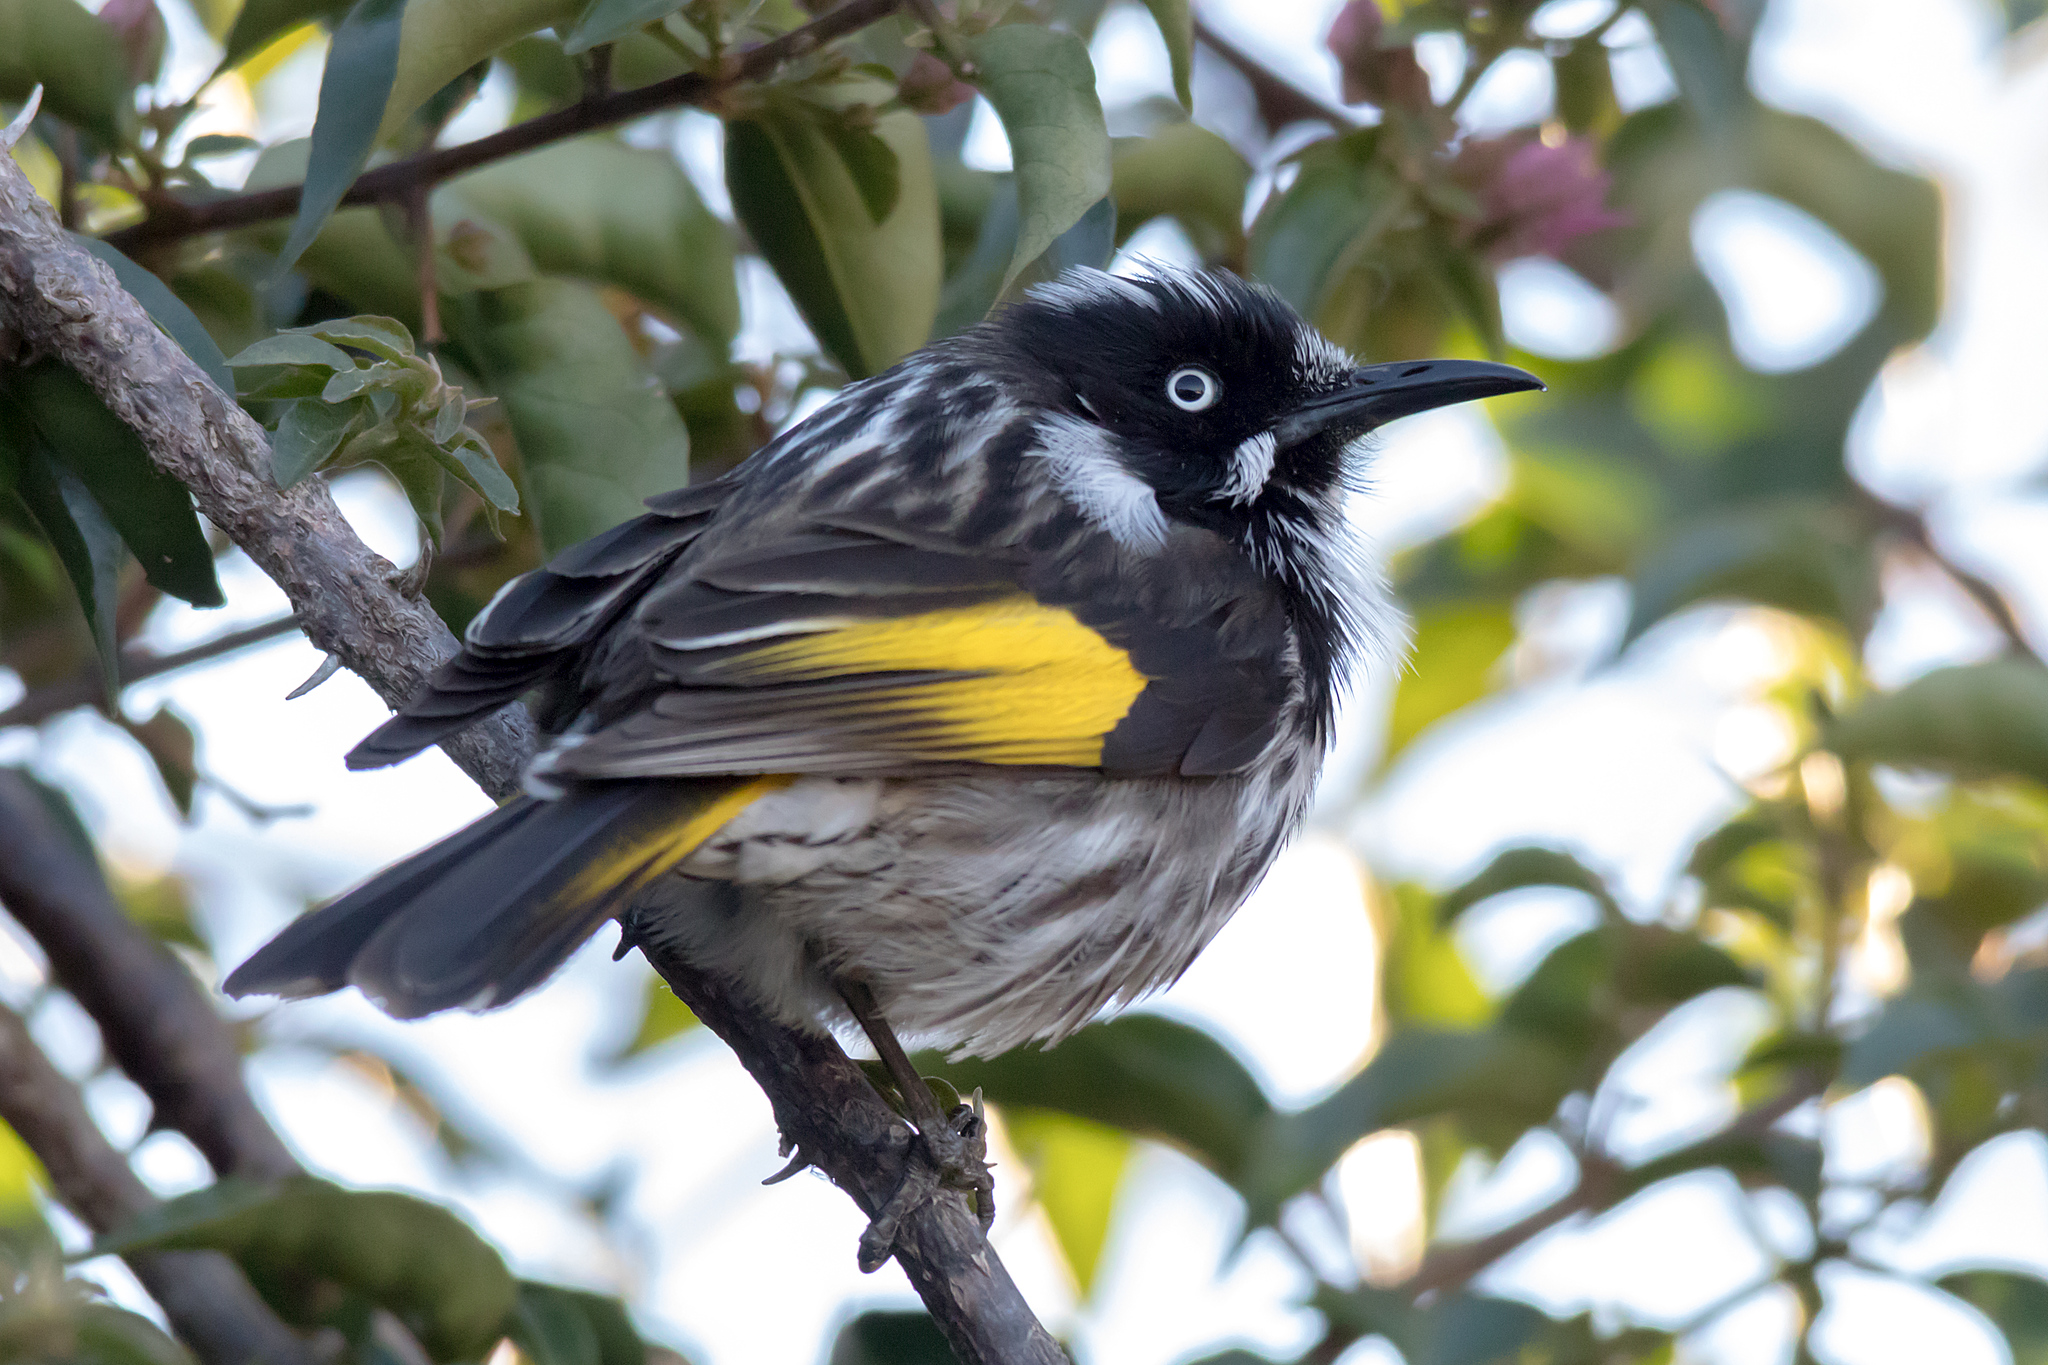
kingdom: Animalia
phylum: Chordata
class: Aves
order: Passeriformes
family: Meliphagidae
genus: Phylidonyris
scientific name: Phylidonyris novaehollandiae
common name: New holland honeyeater
